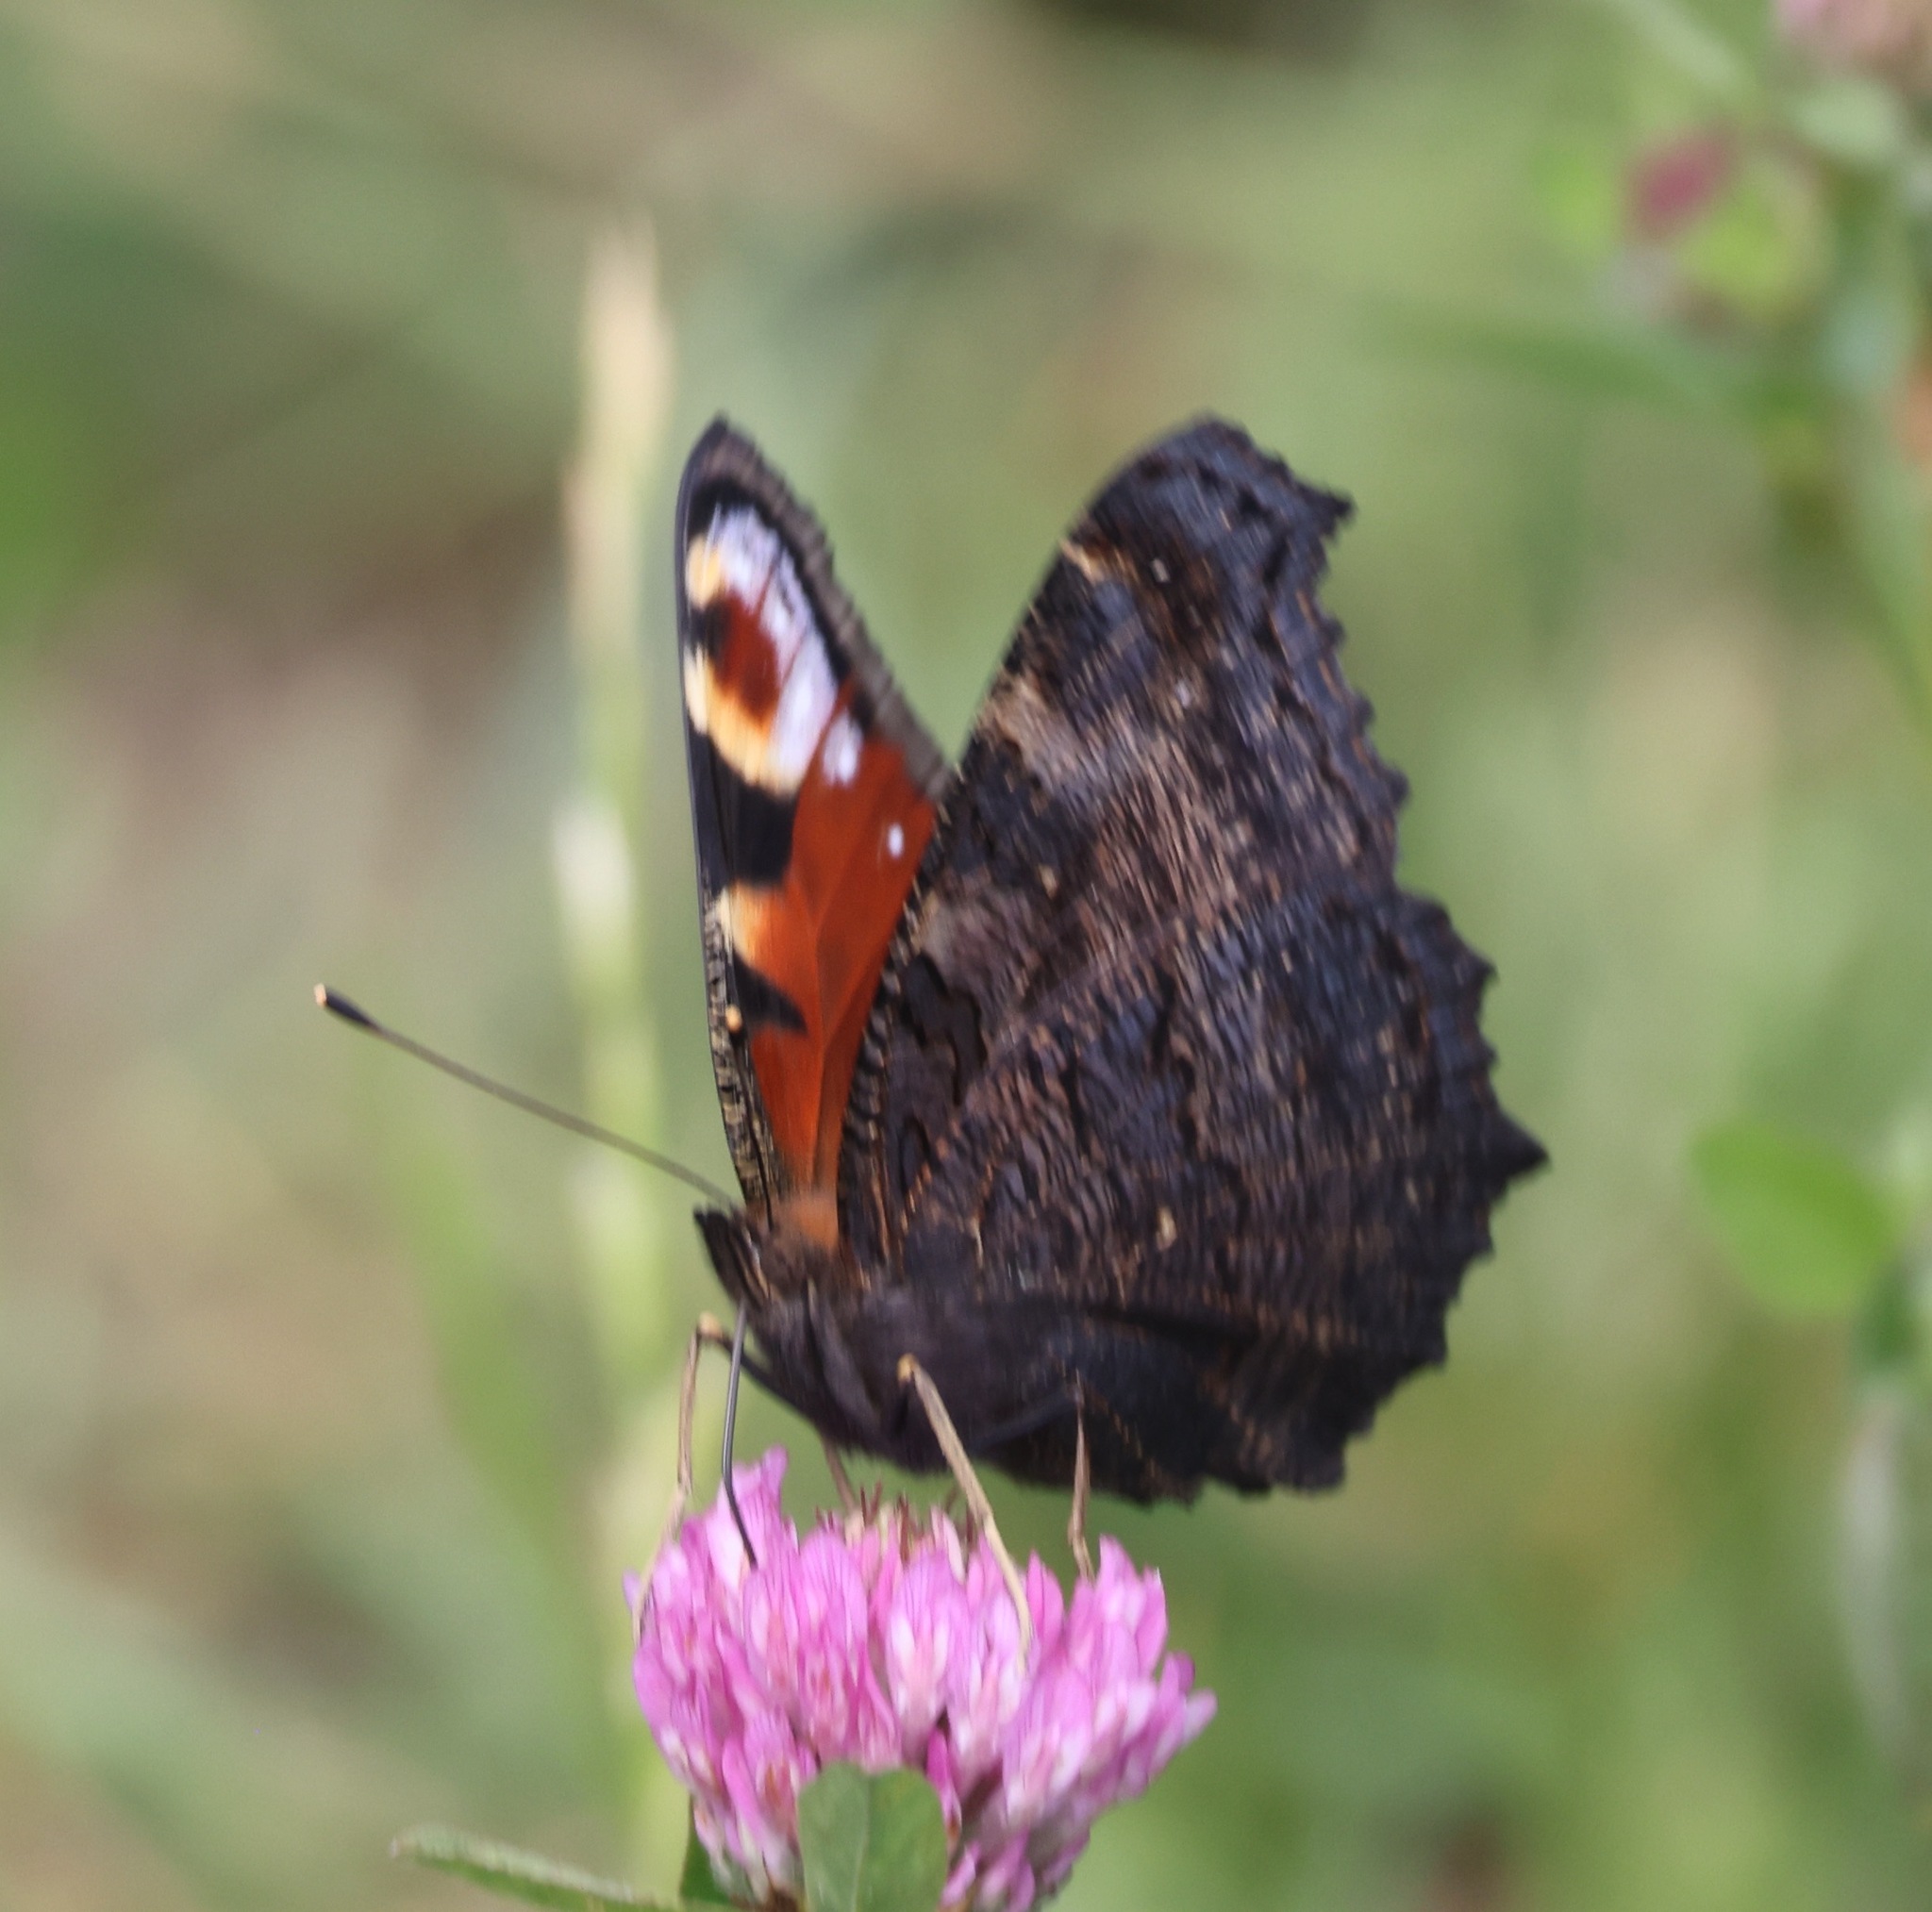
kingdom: Animalia
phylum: Arthropoda
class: Insecta
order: Lepidoptera
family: Nymphalidae
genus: Aglais
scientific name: Aglais io
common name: Peacock
